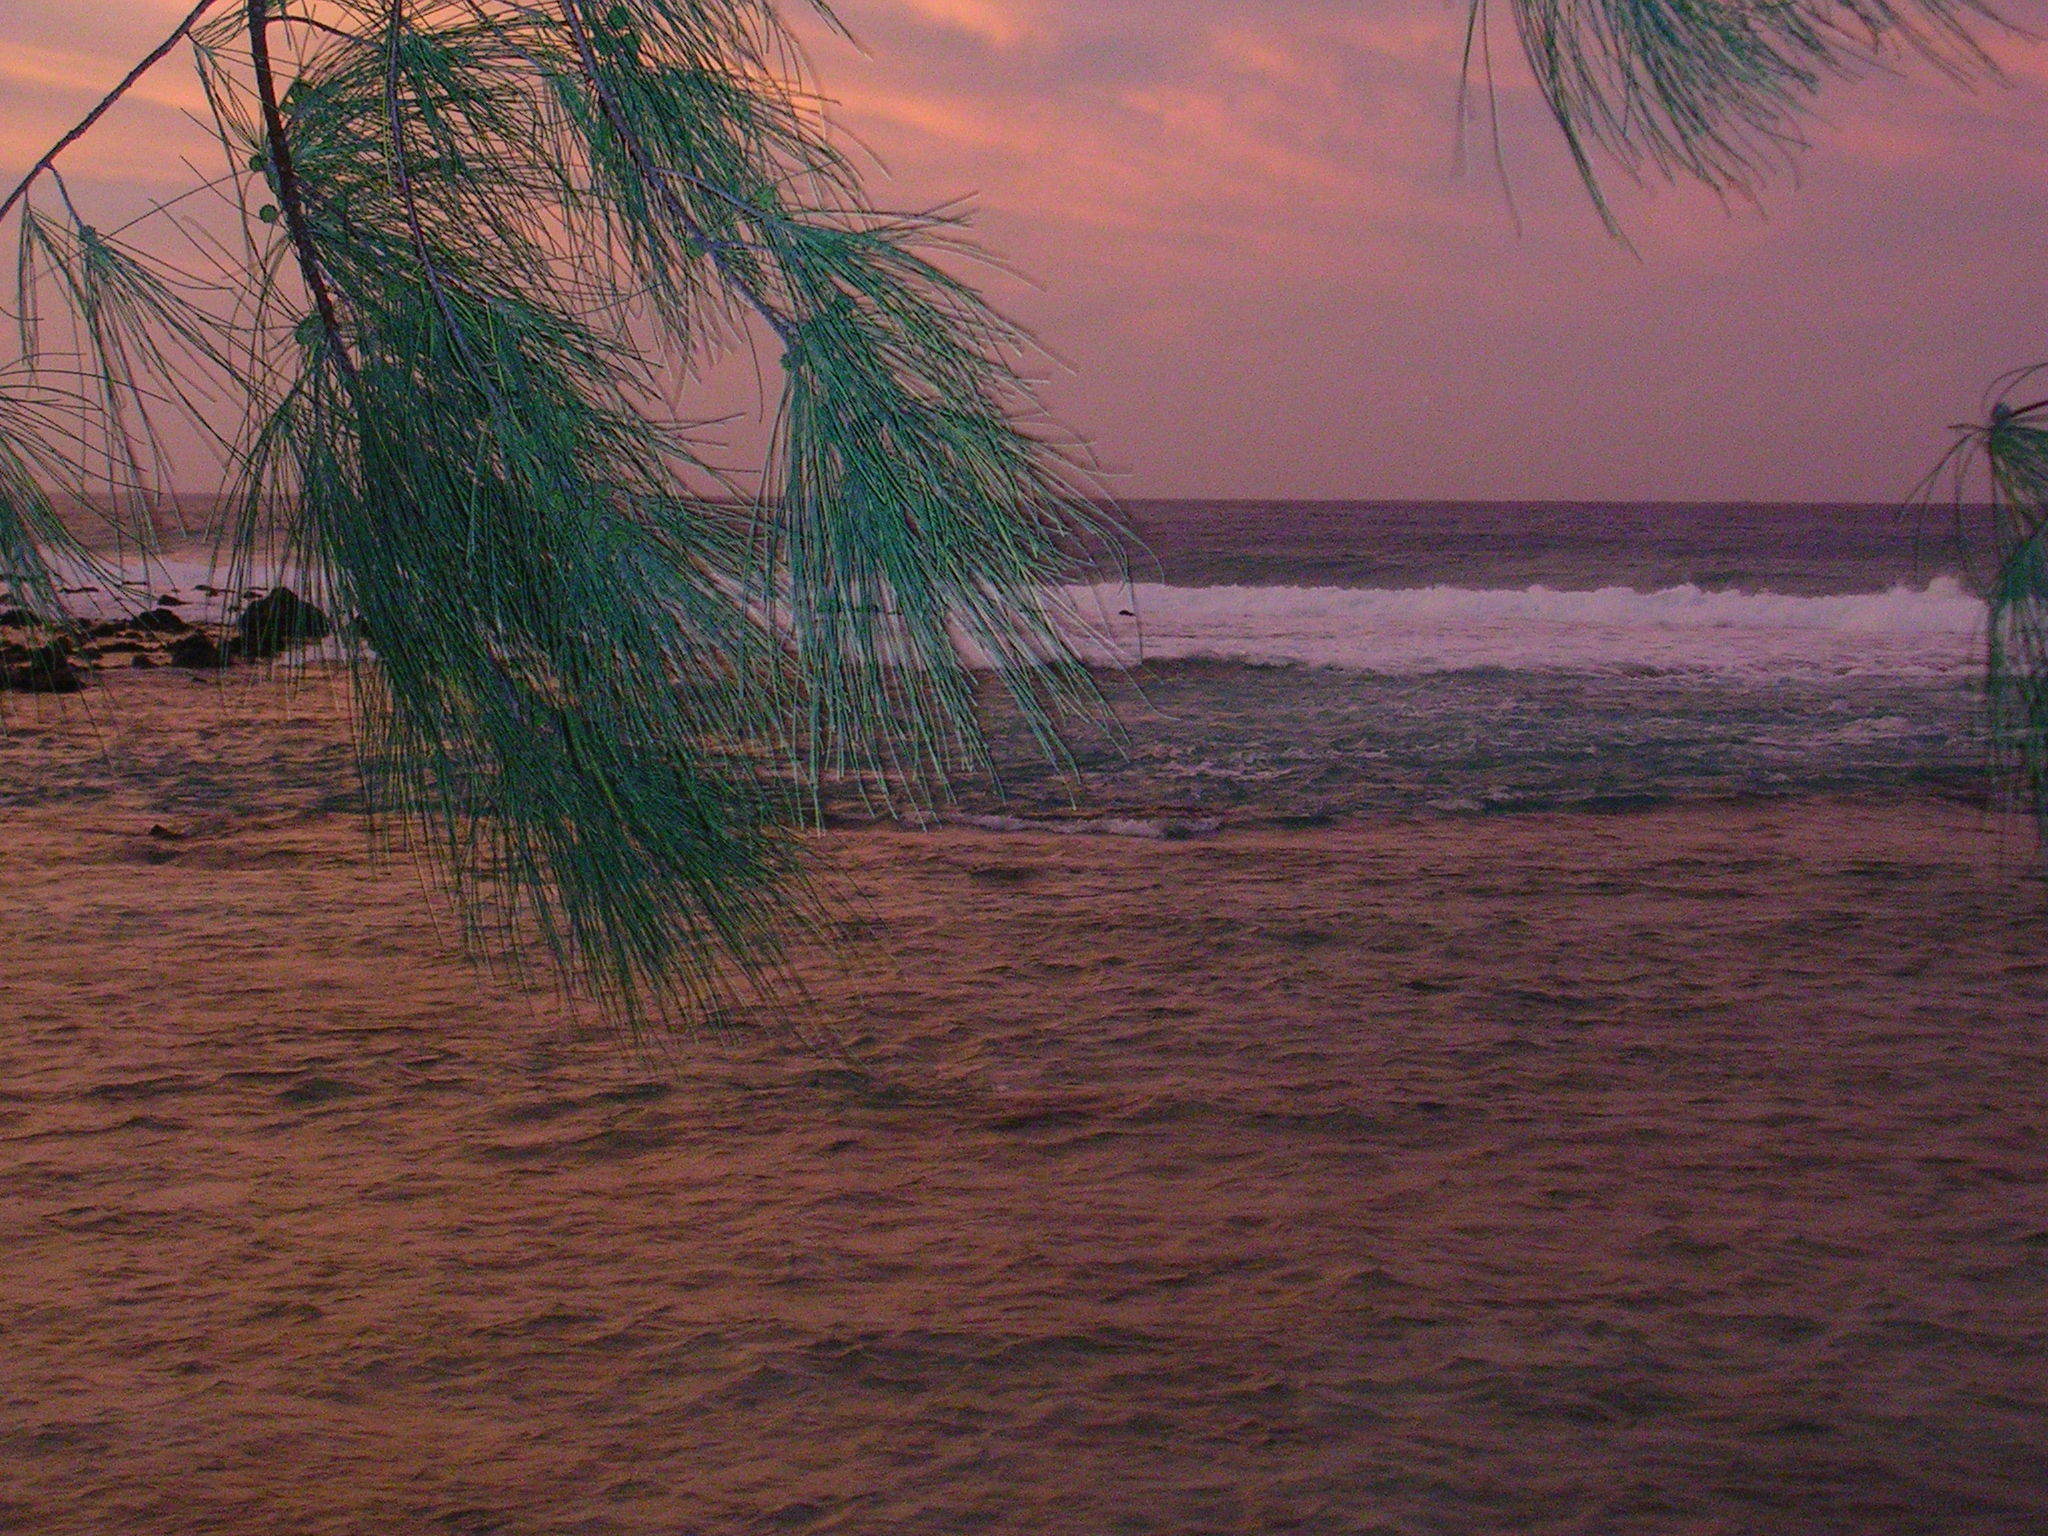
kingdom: Plantae
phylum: Tracheophyta
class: Magnoliopsida
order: Fagales
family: Casuarinaceae
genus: Casuarina
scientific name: Casuarina equisetifolia
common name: Beach sheoak
